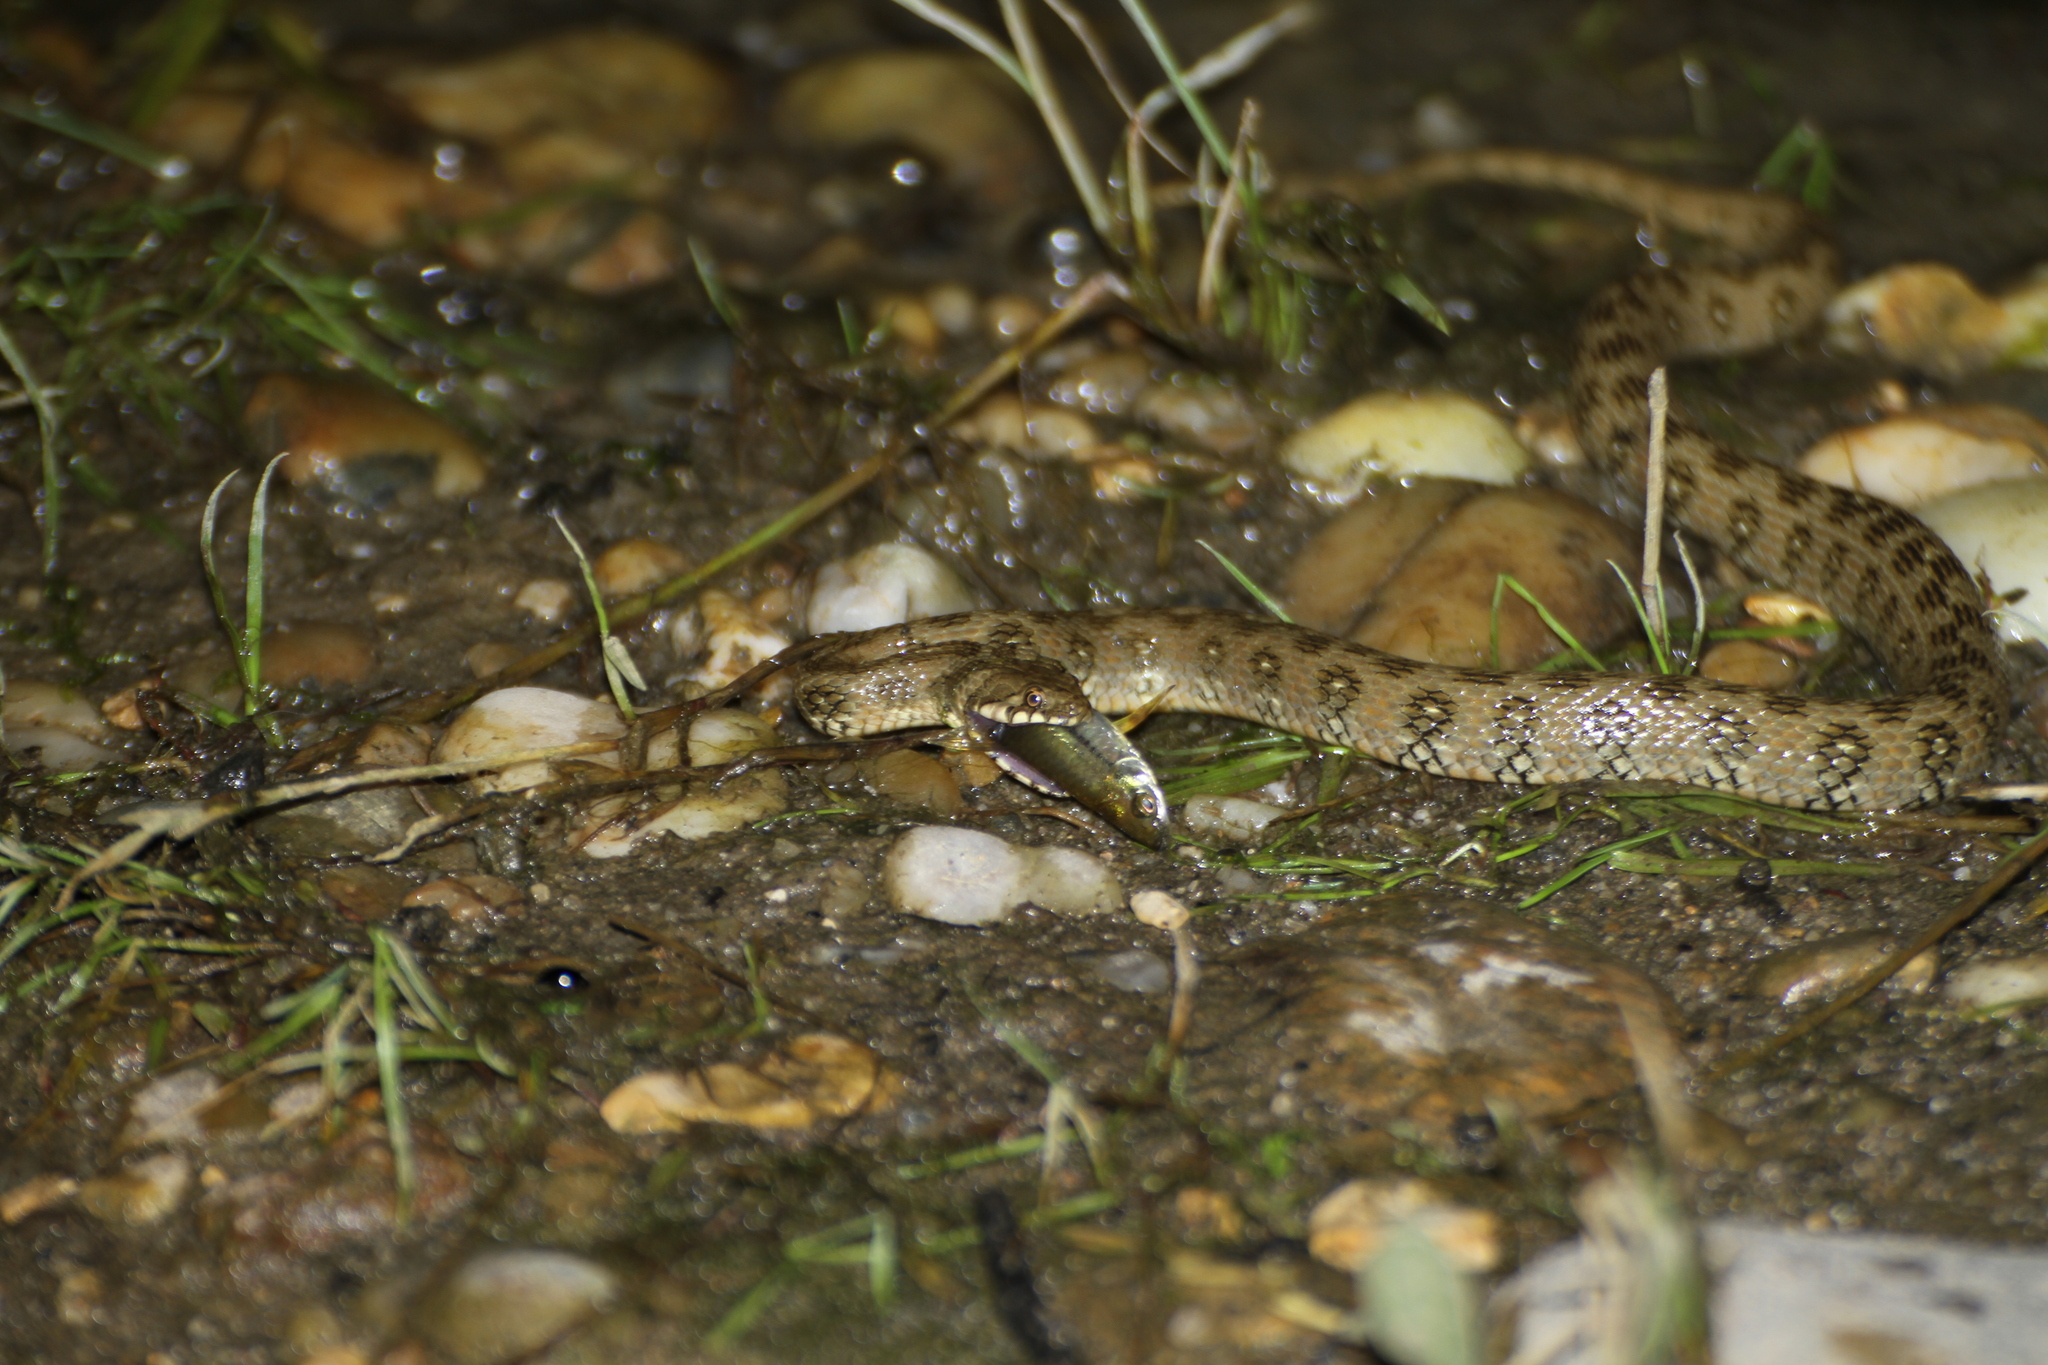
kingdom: Animalia
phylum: Chordata
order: Cypriniformes
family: Cyprinidae
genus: Telestes
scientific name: Telestes souffia
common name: Souffia
